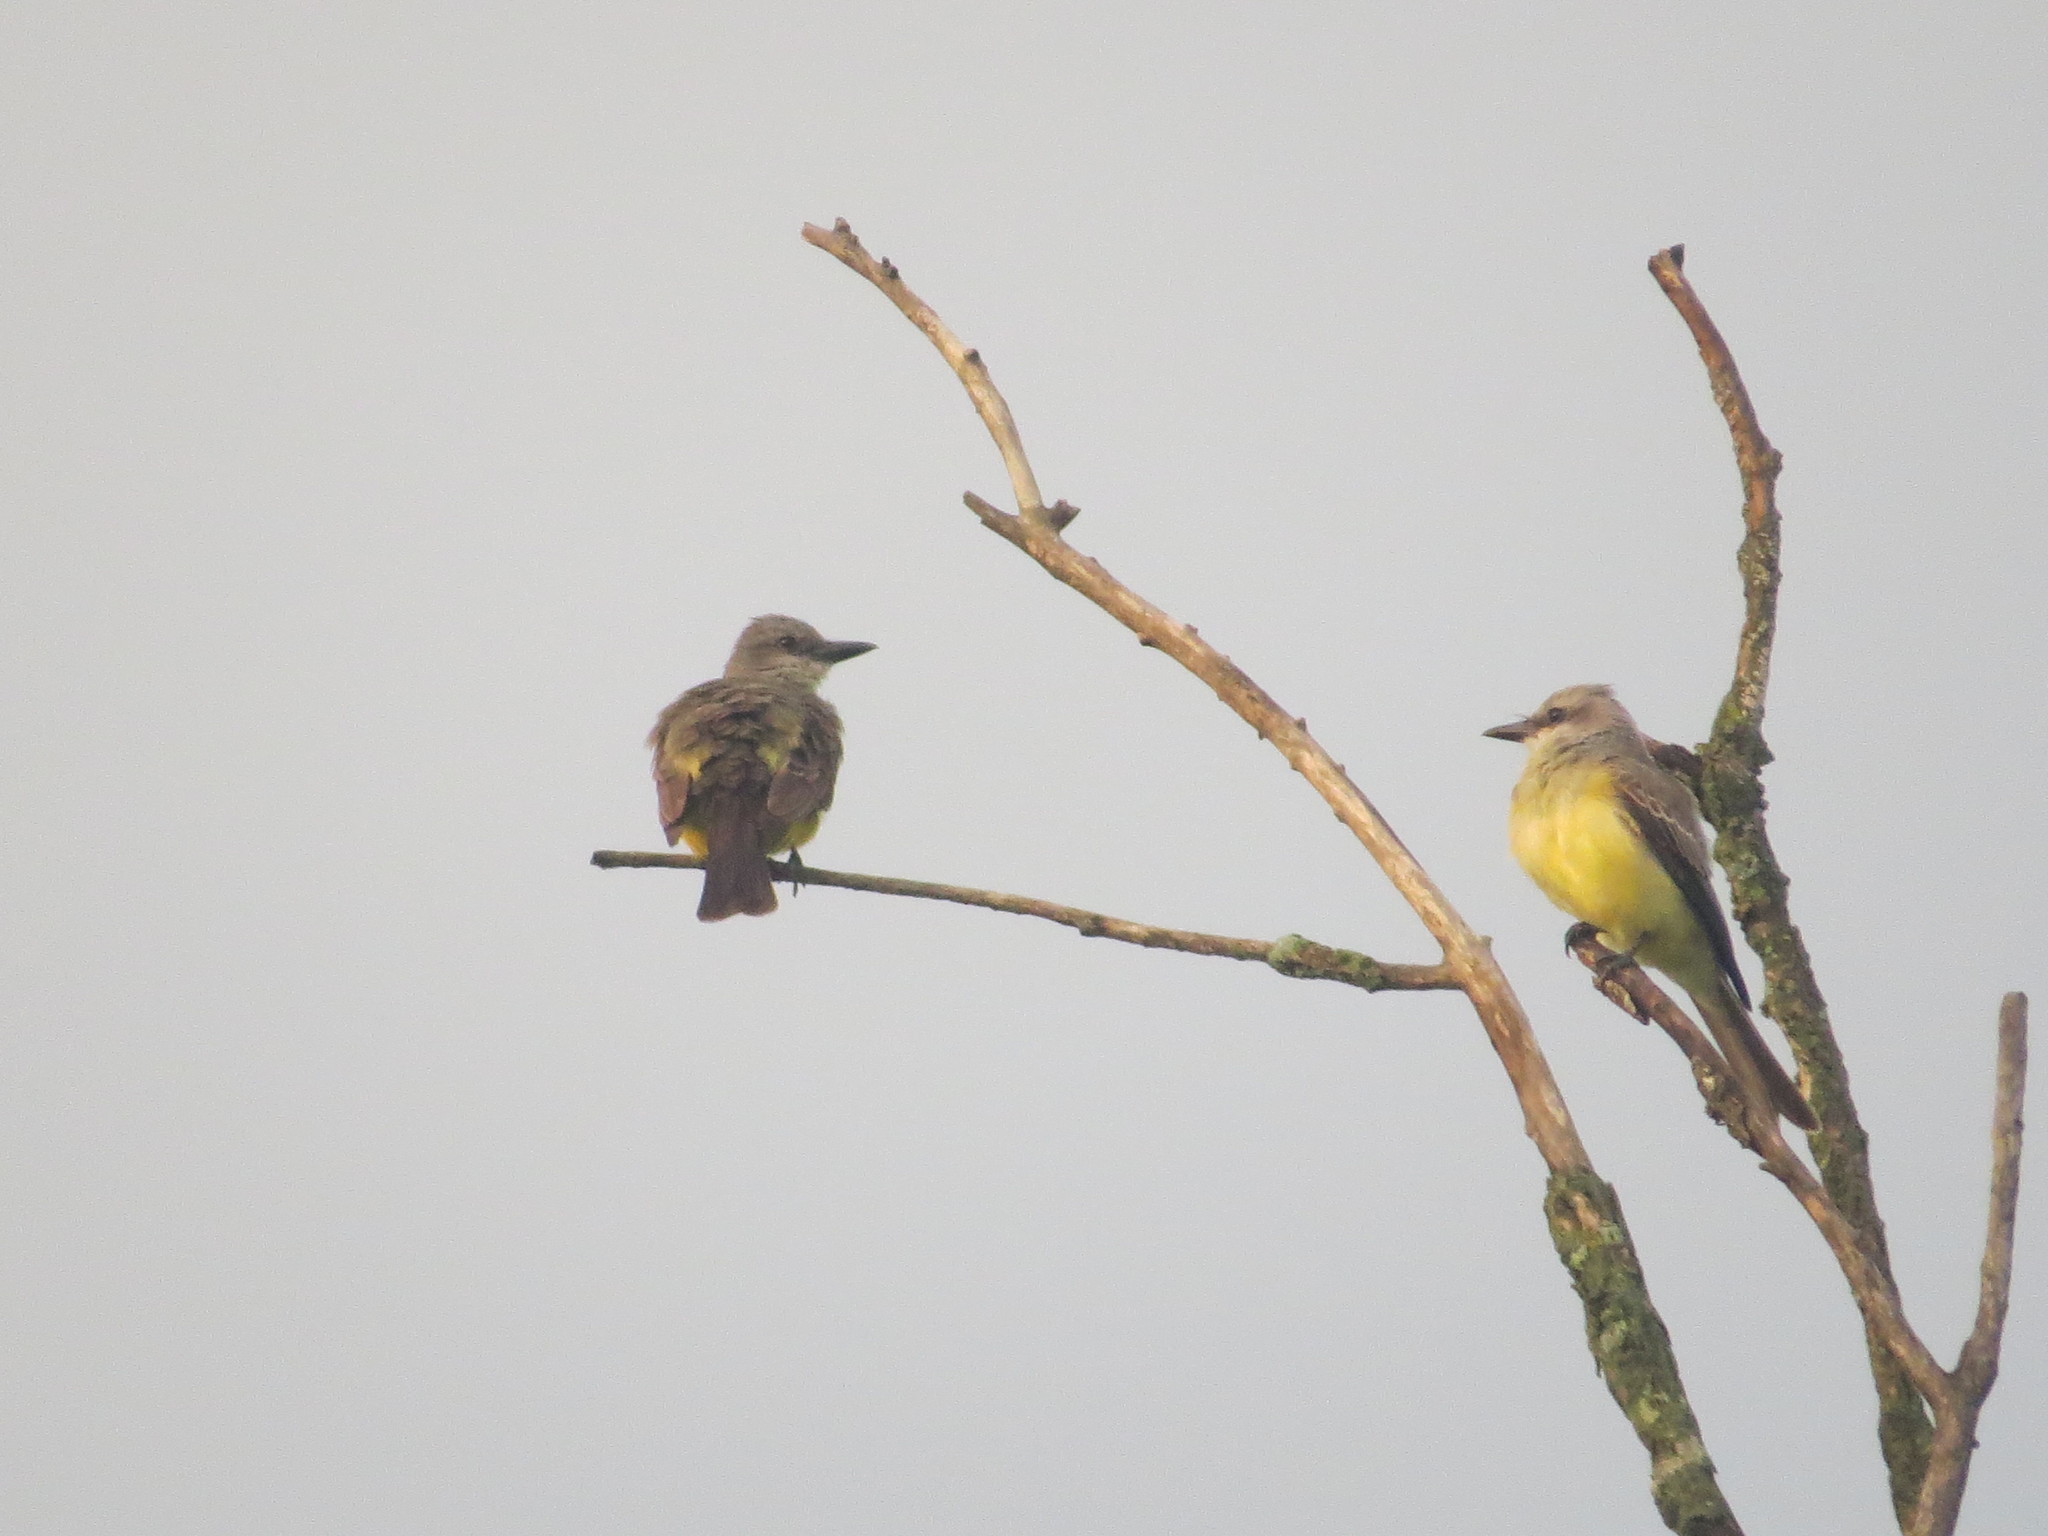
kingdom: Animalia
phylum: Chordata
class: Aves
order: Passeriformes
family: Tyrannidae
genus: Tyrannus
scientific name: Tyrannus melancholicus
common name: Tropical kingbird
